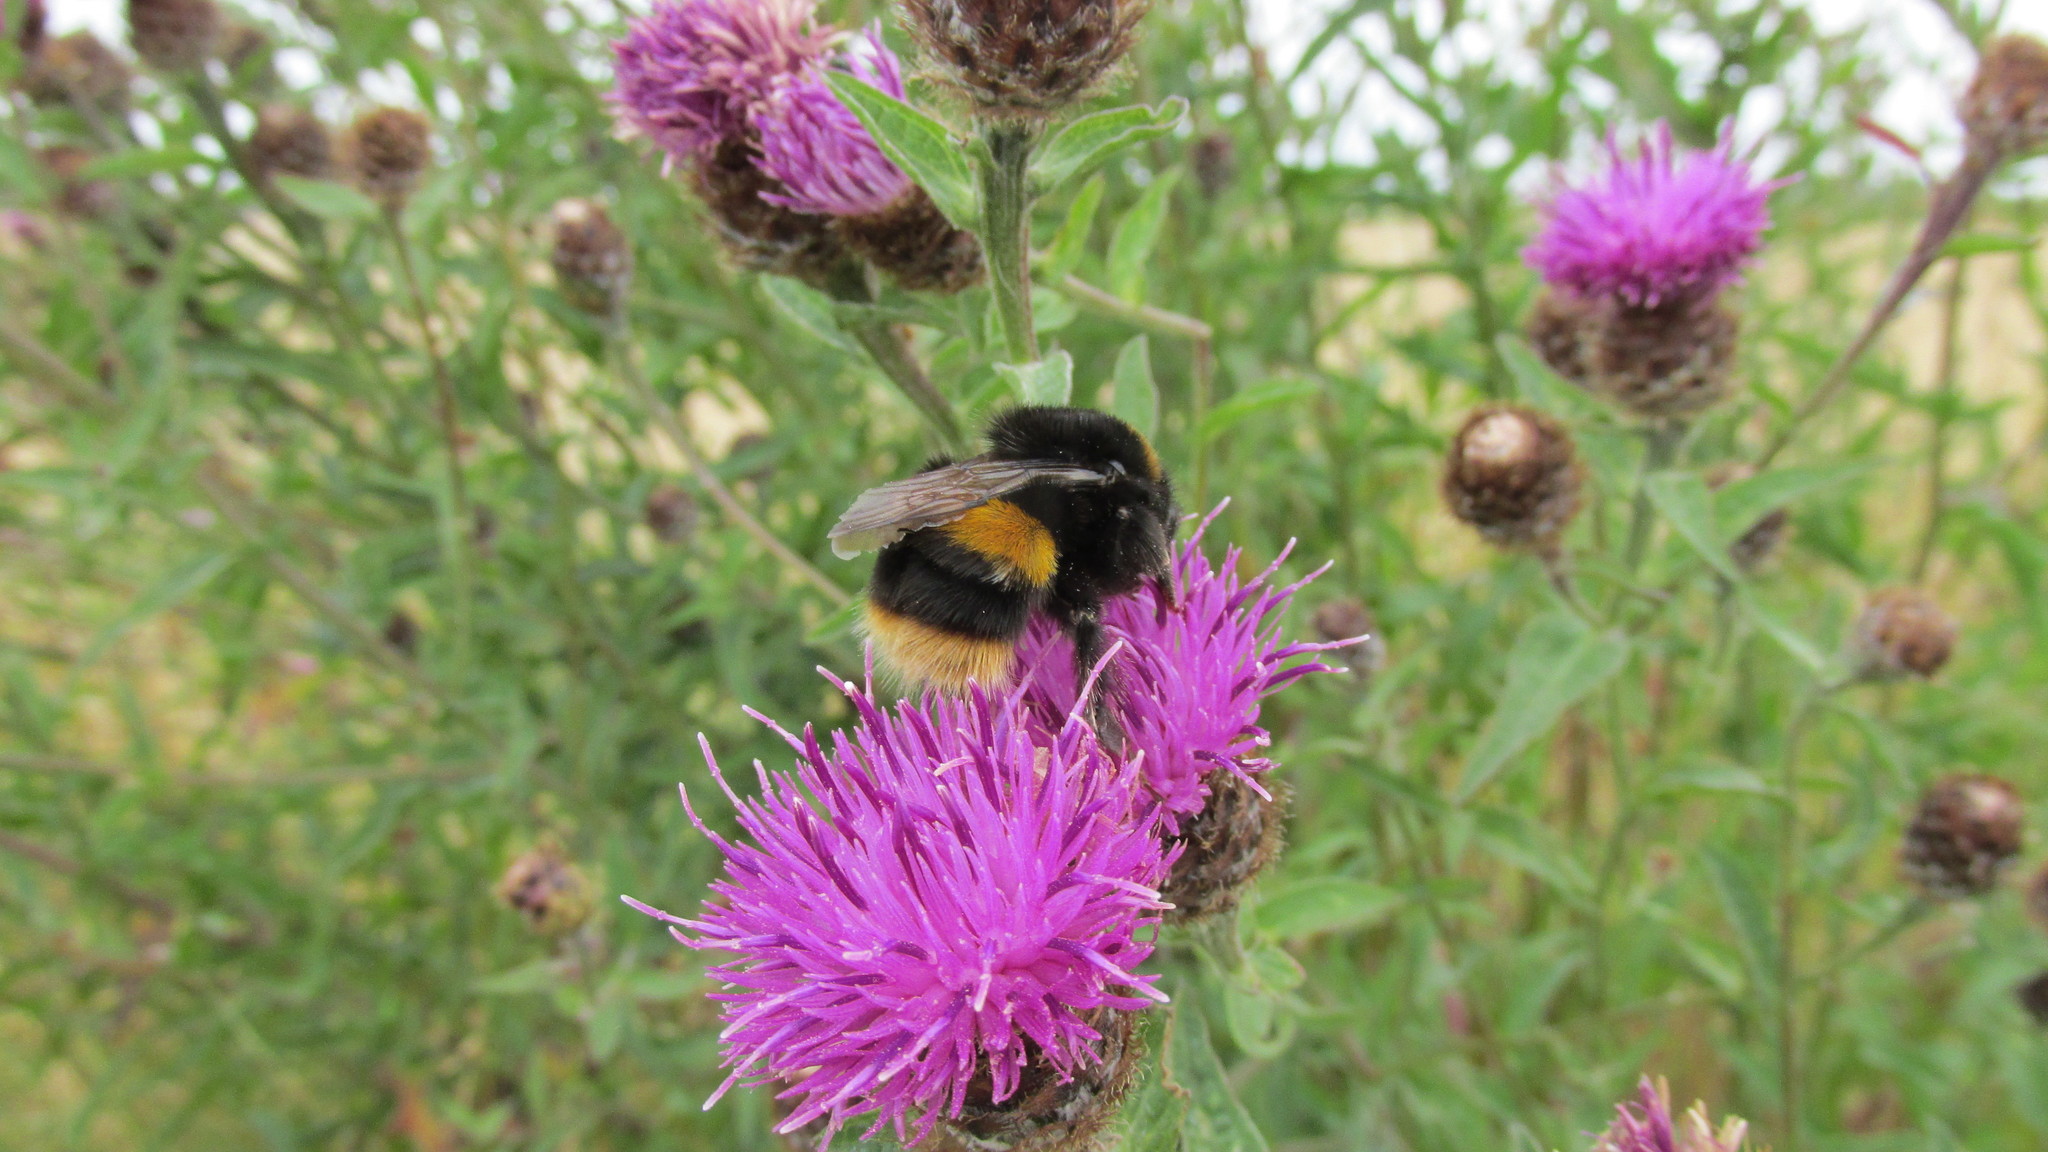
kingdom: Animalia
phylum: Arthropoda
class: Insecta
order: Hymenoptera
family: Apidae
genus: Bombus
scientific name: Bombus terrestris
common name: Buff-tailed bumblebee
